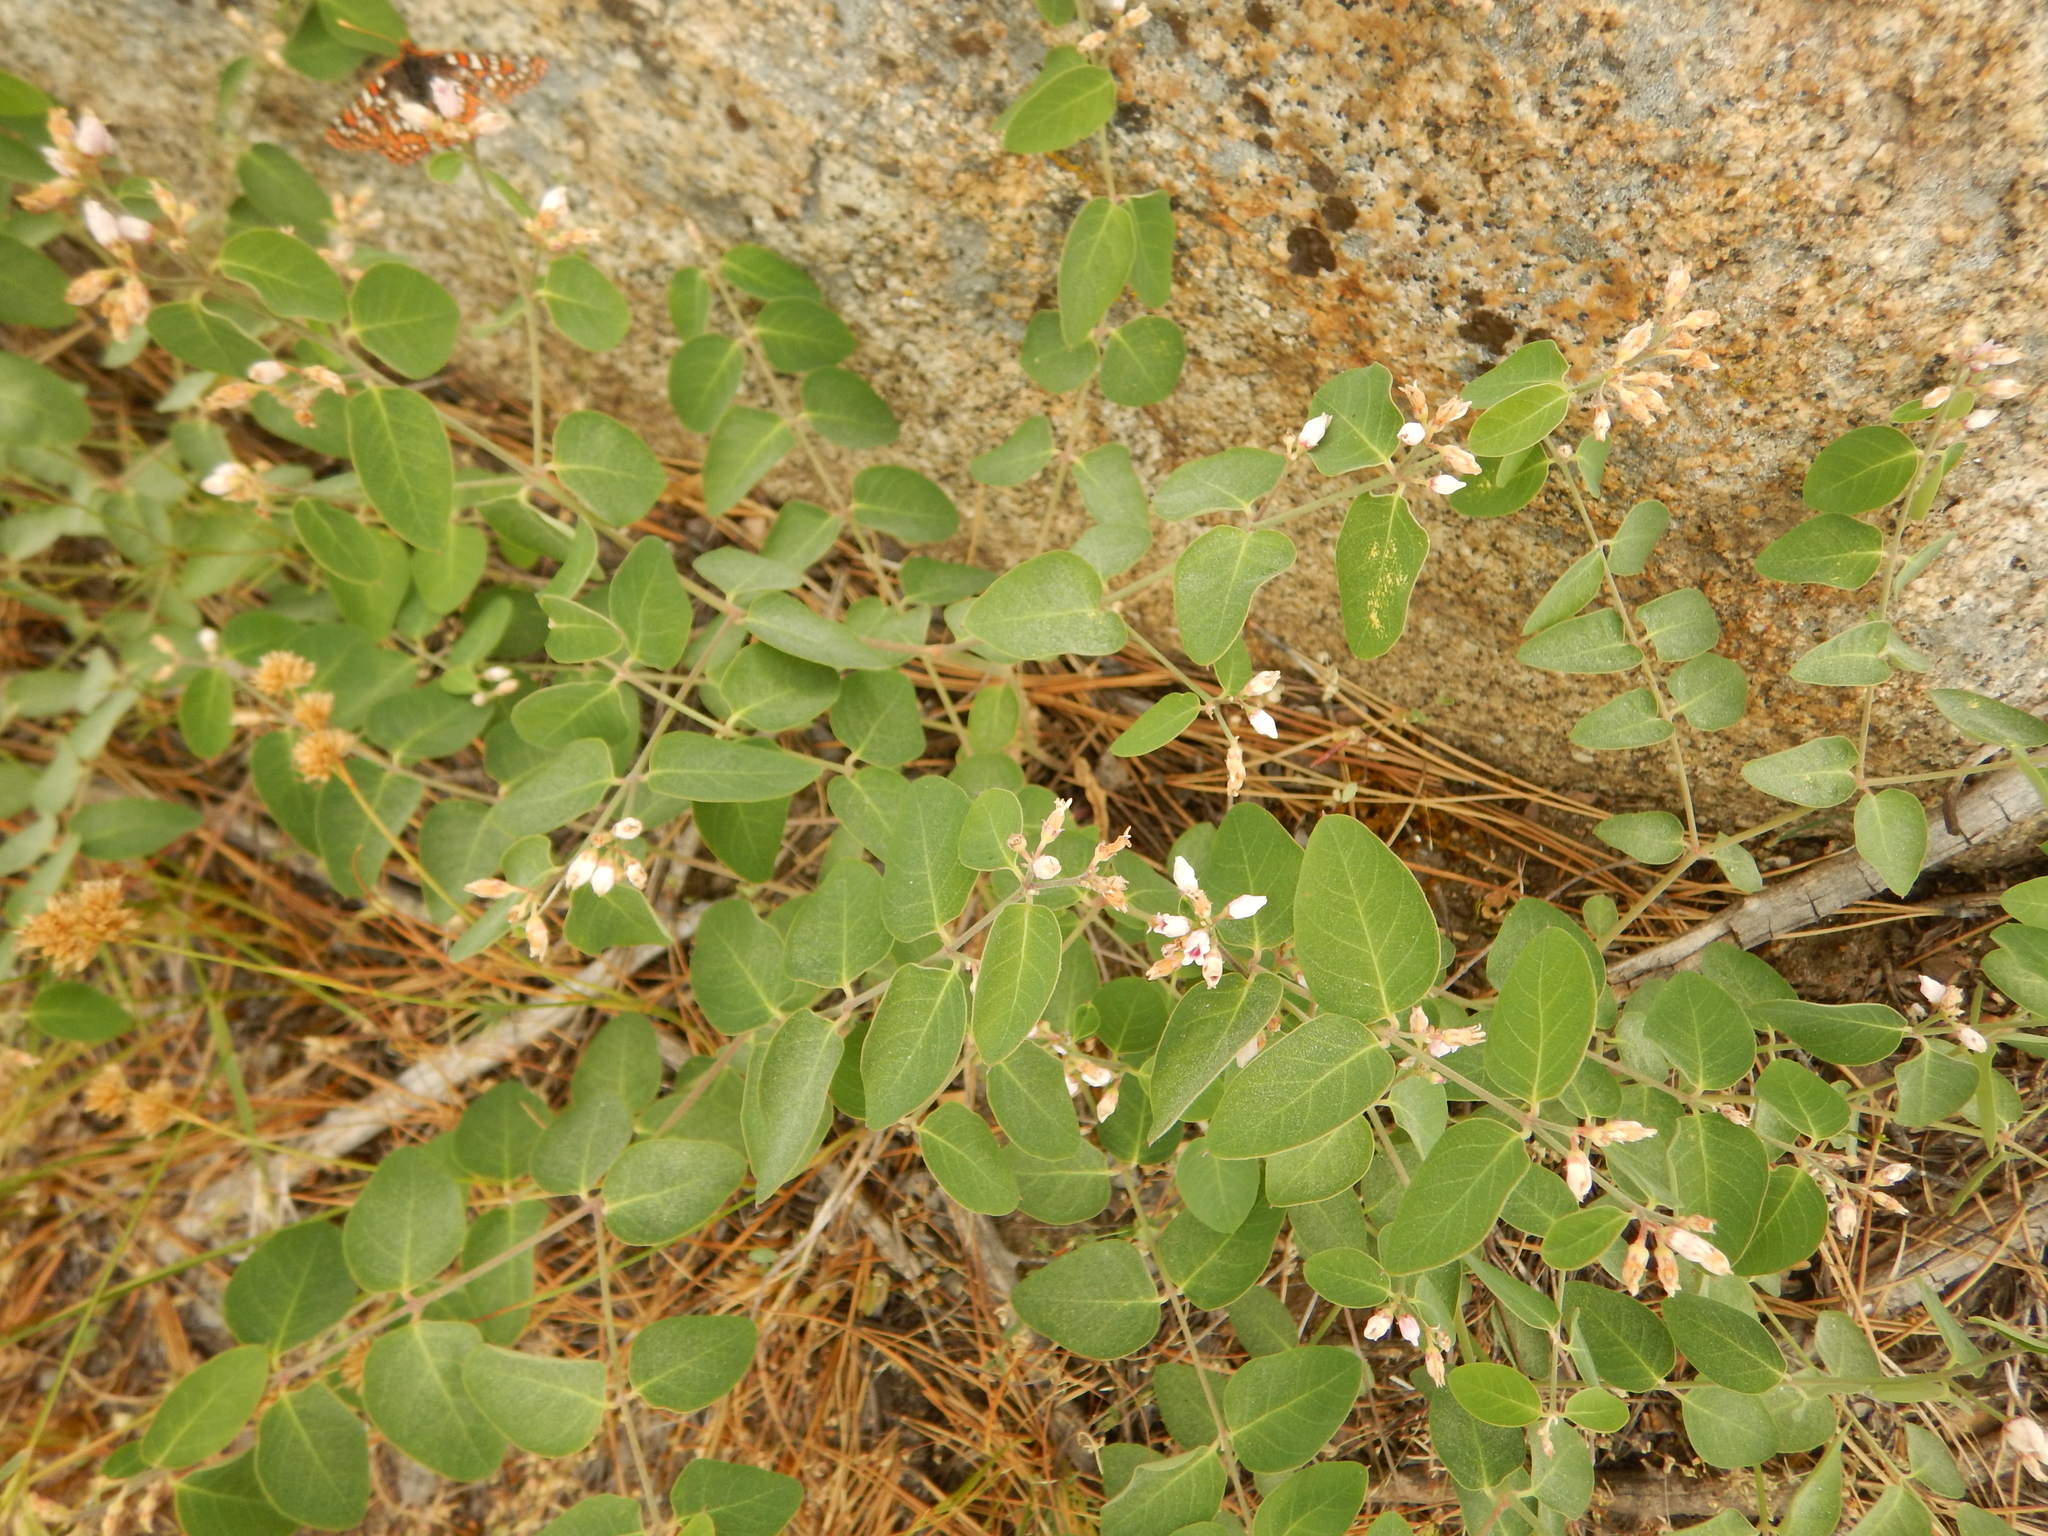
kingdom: Plantae
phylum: Tracheophyta
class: Magnoliopsida
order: Gentianales
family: Apocynaceae
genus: Apocynum
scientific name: Apocynum androsaemifolium
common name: Spreading dogbane
